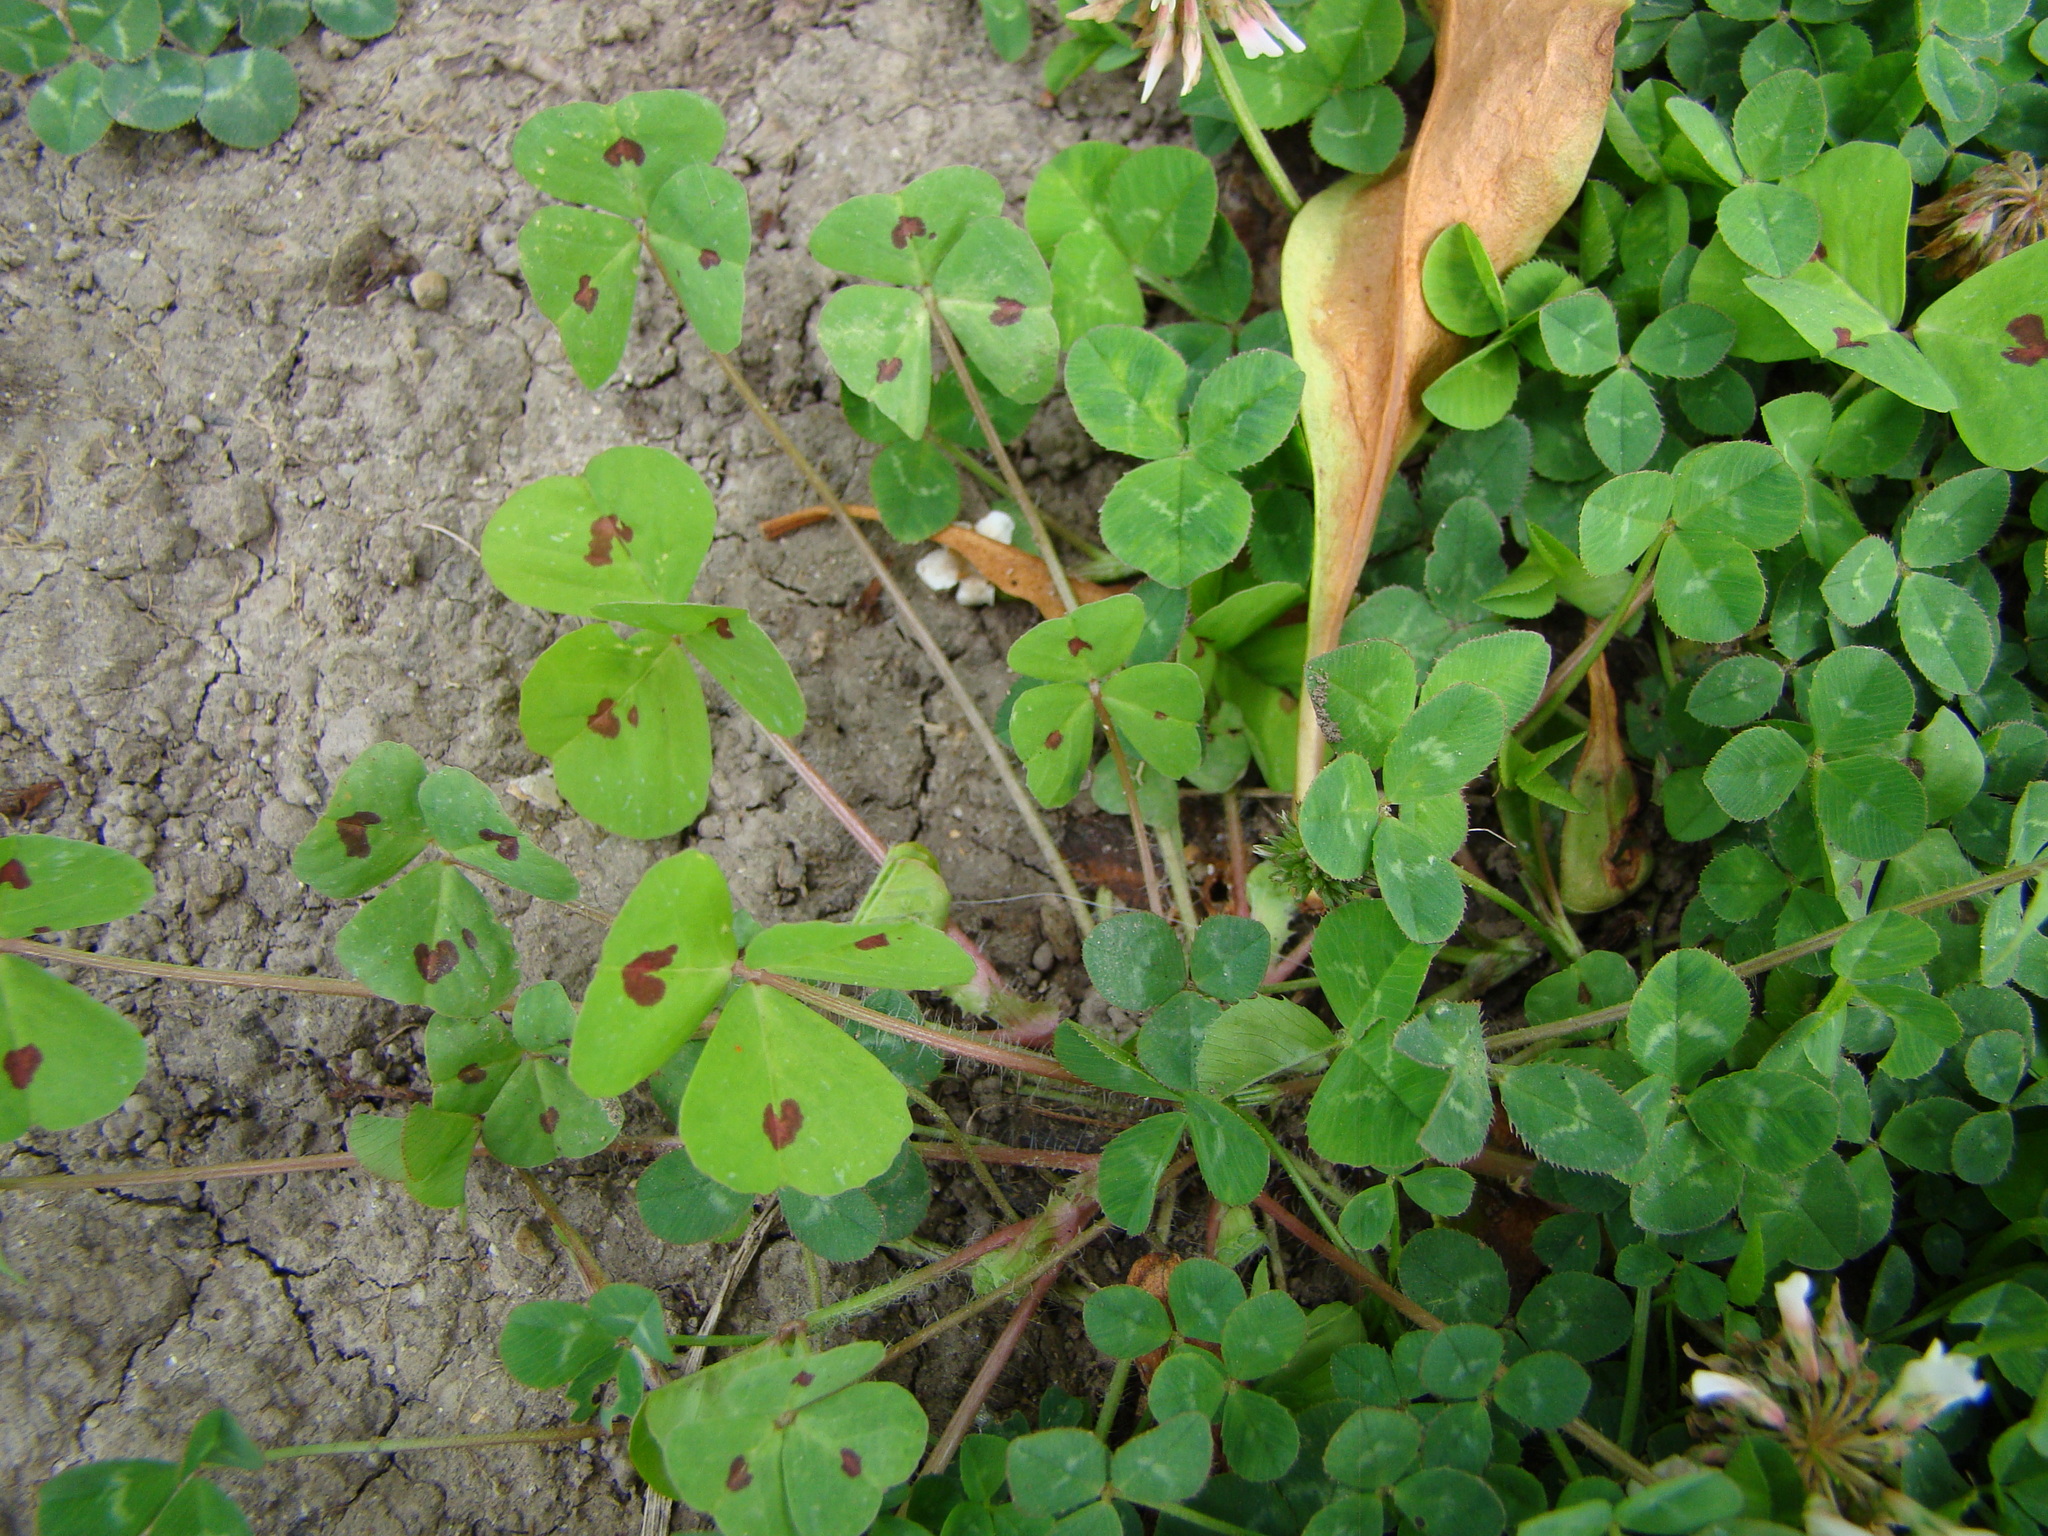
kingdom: Plantae
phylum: Tracheophyta
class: Magnoliopsida
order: Fabales
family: Fabaceae
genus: Medicago
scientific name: Medicago arabica
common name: Spotted medick
